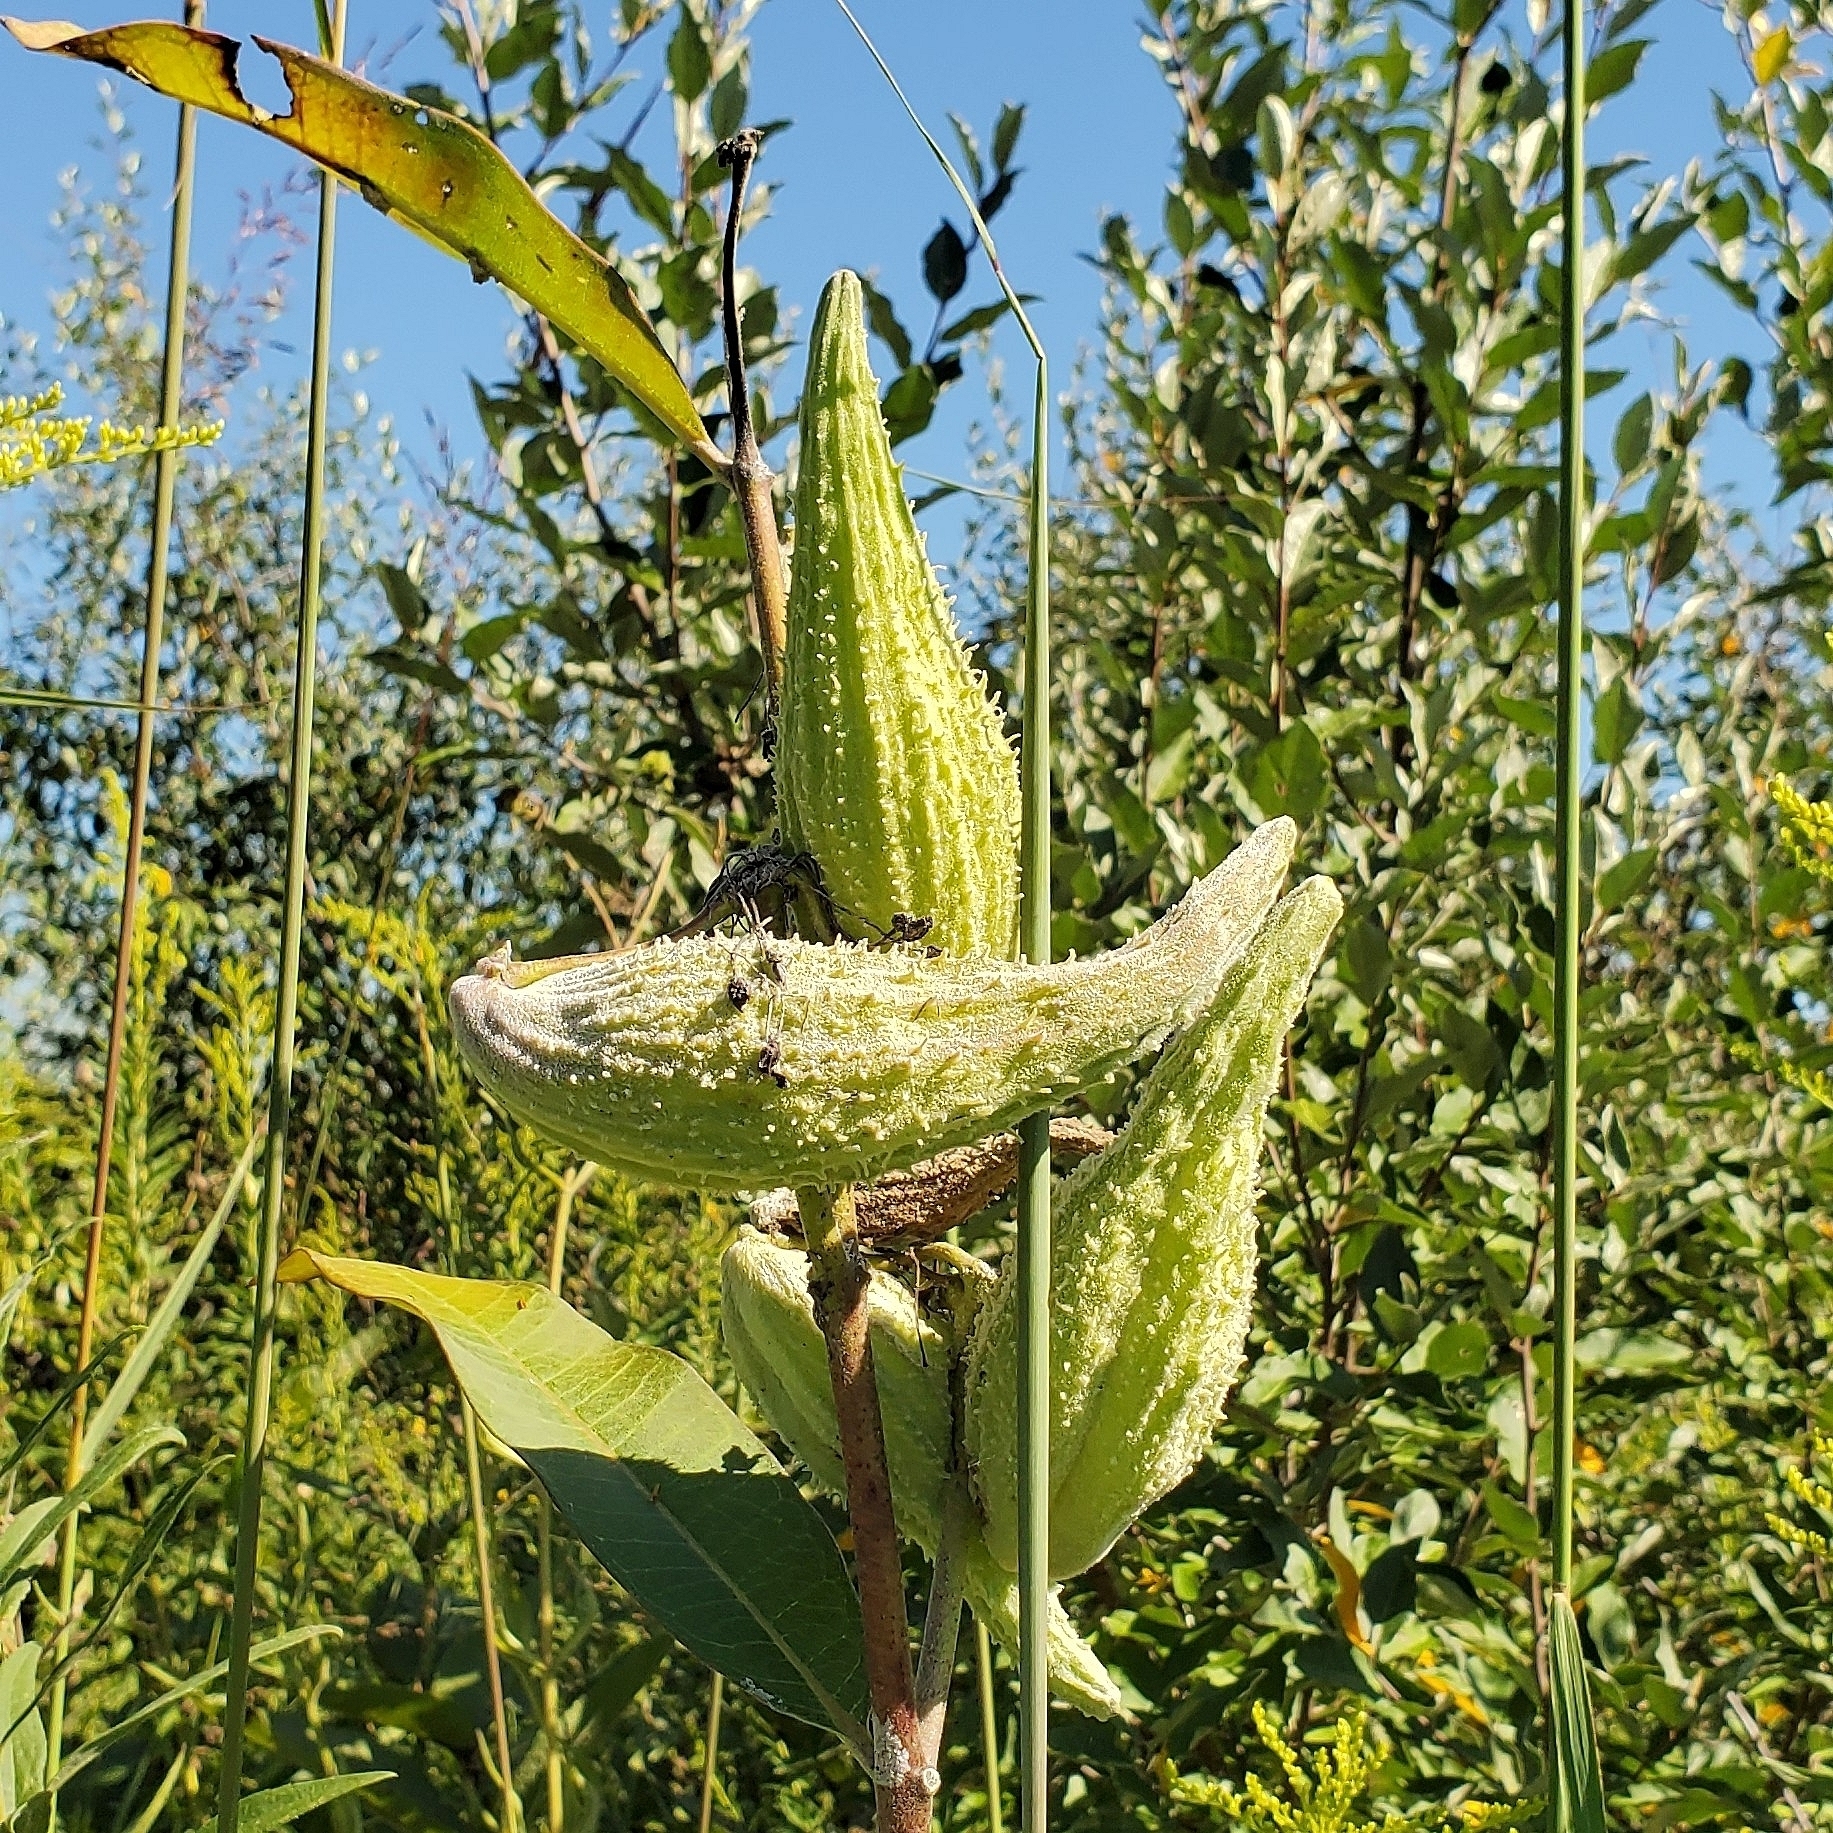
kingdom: Plantae
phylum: Tracheophyta
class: Magnoliopsida
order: Gentianales
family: Apocynaceae
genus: Asclepias
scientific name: Asclepias syriaca
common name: Common milkweed
